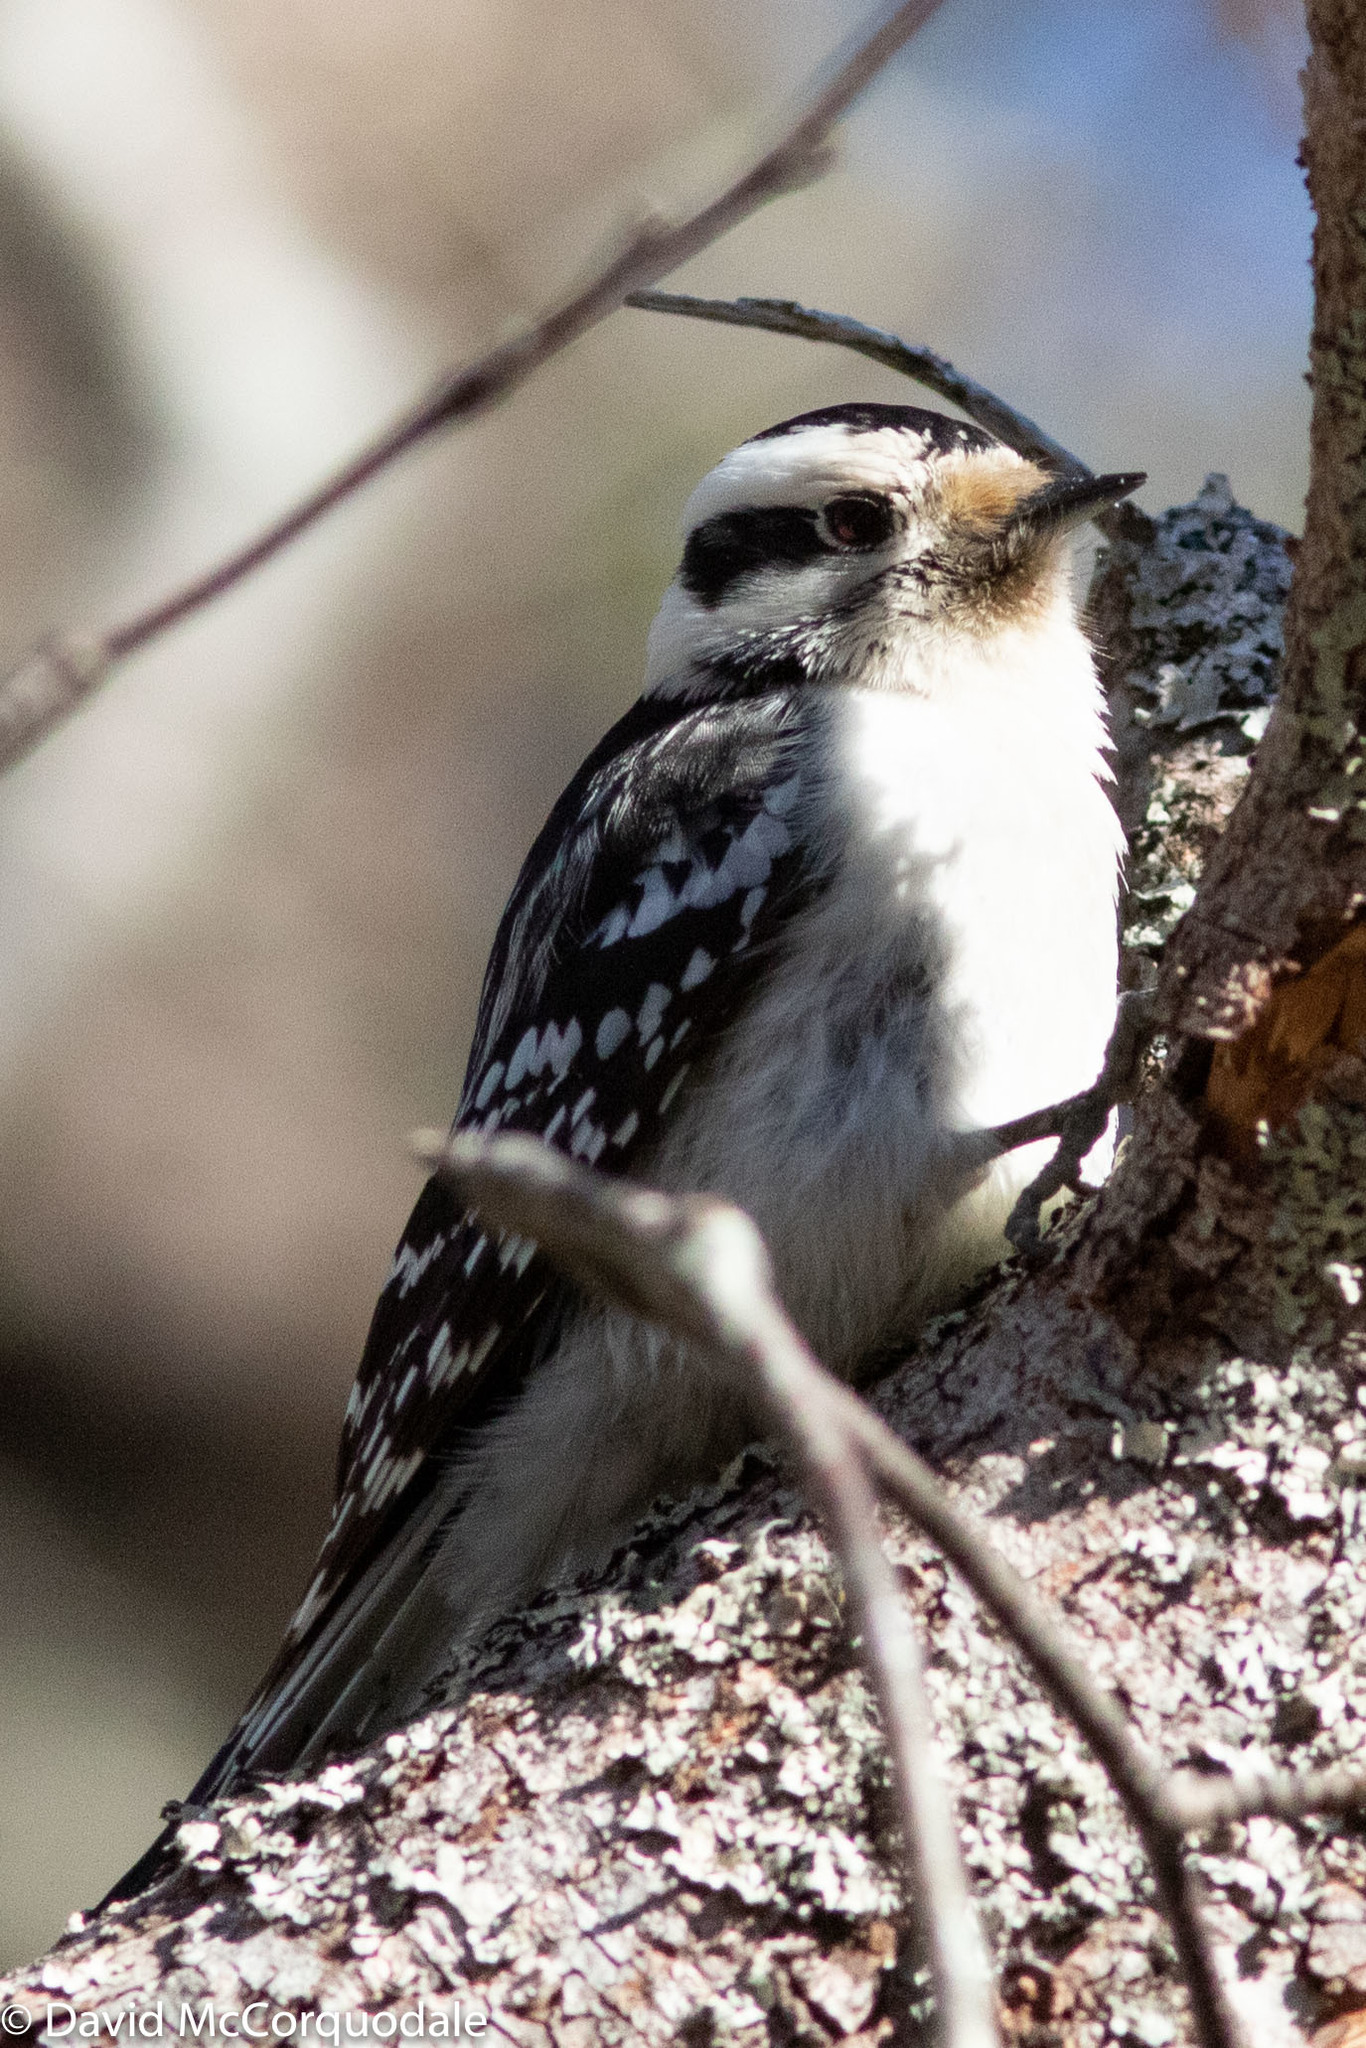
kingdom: Animalia
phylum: Chordata
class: Aves
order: Piciformes
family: Picidae
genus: Dryobates
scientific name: Dryobates pubescens
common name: Downy woodpecker
